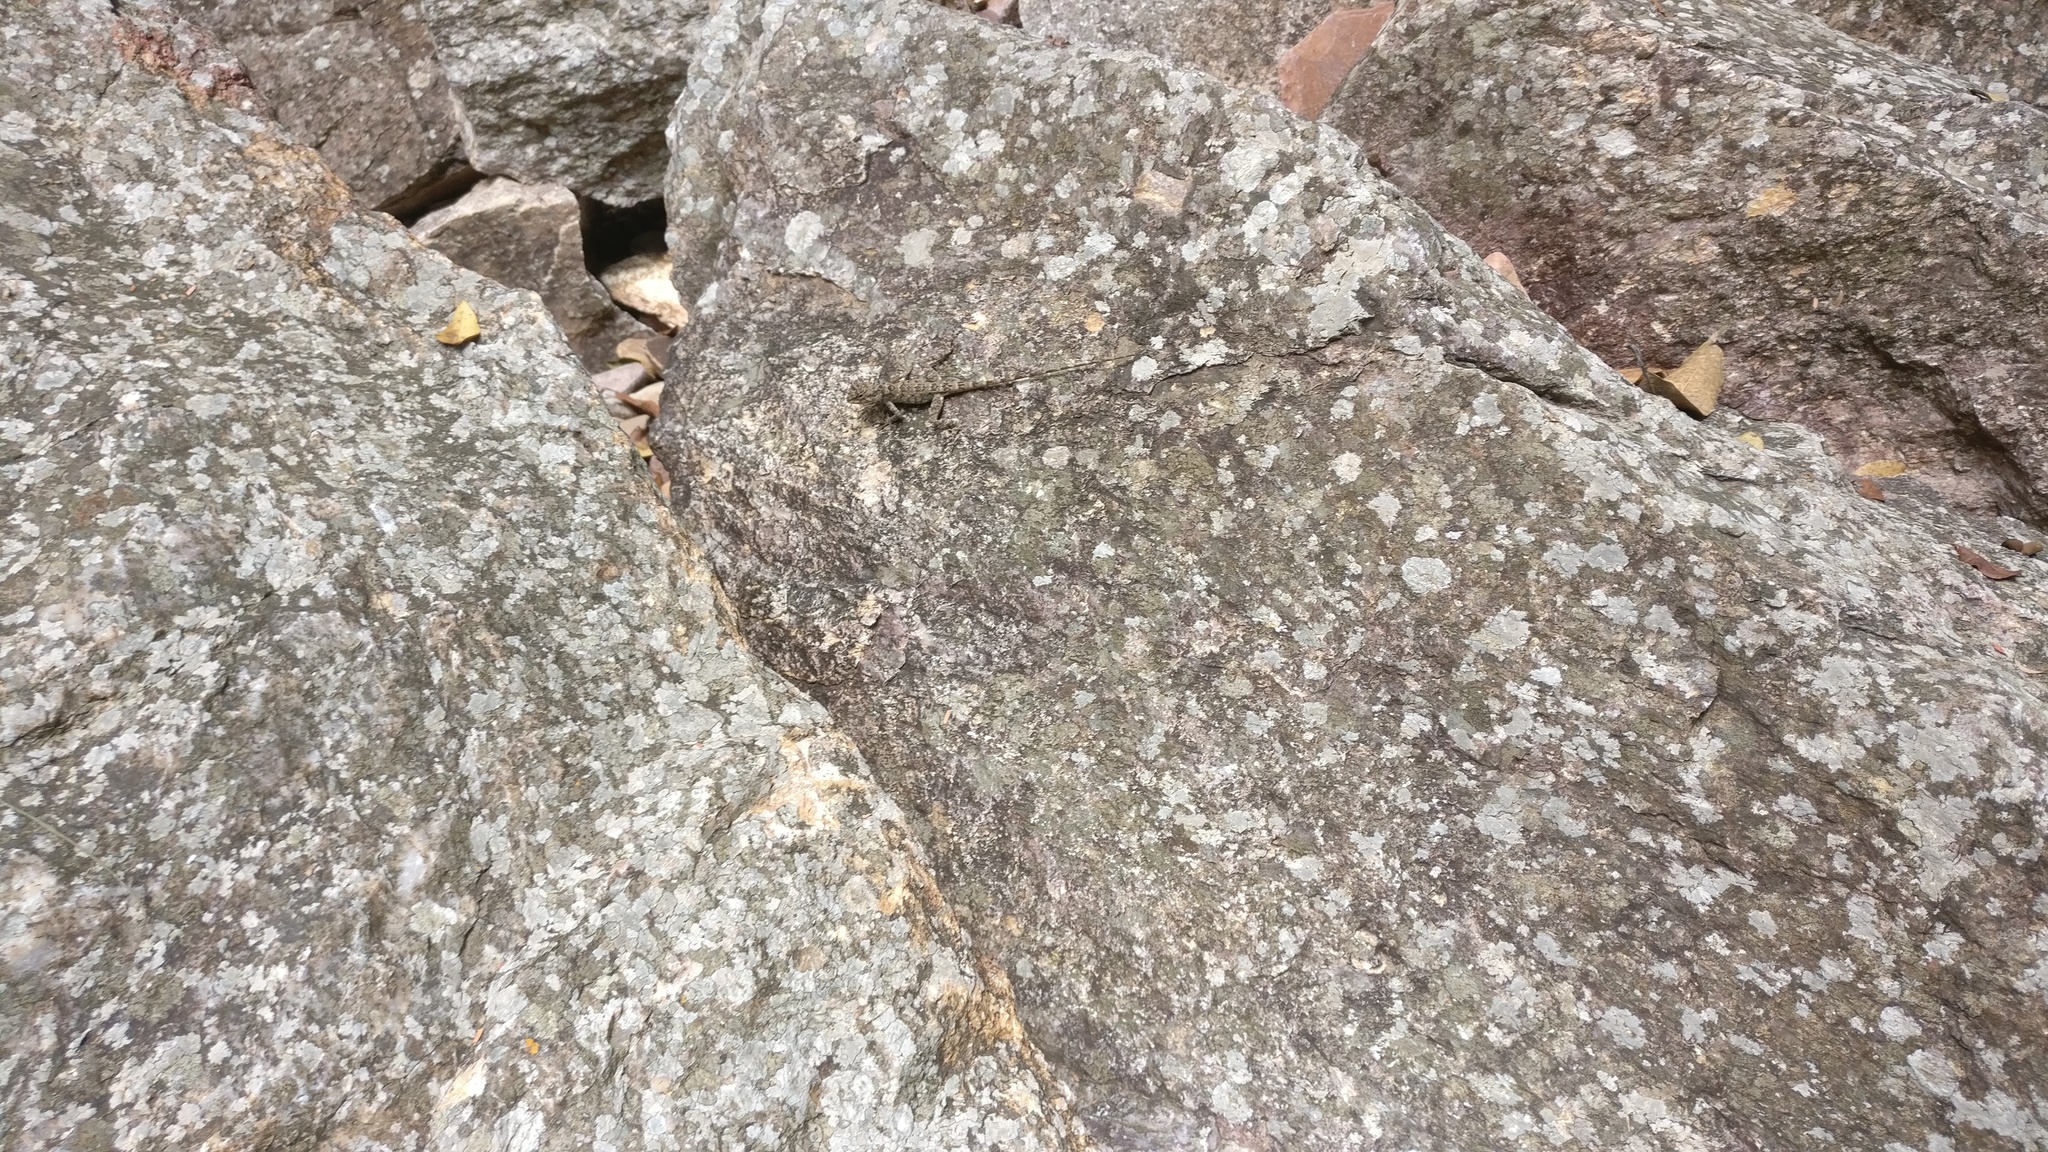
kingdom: Animalia
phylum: Chordata
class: Squamata
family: Agamidae
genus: Psammophilus
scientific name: Psammophilus dorsalis
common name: South indian rock agama
